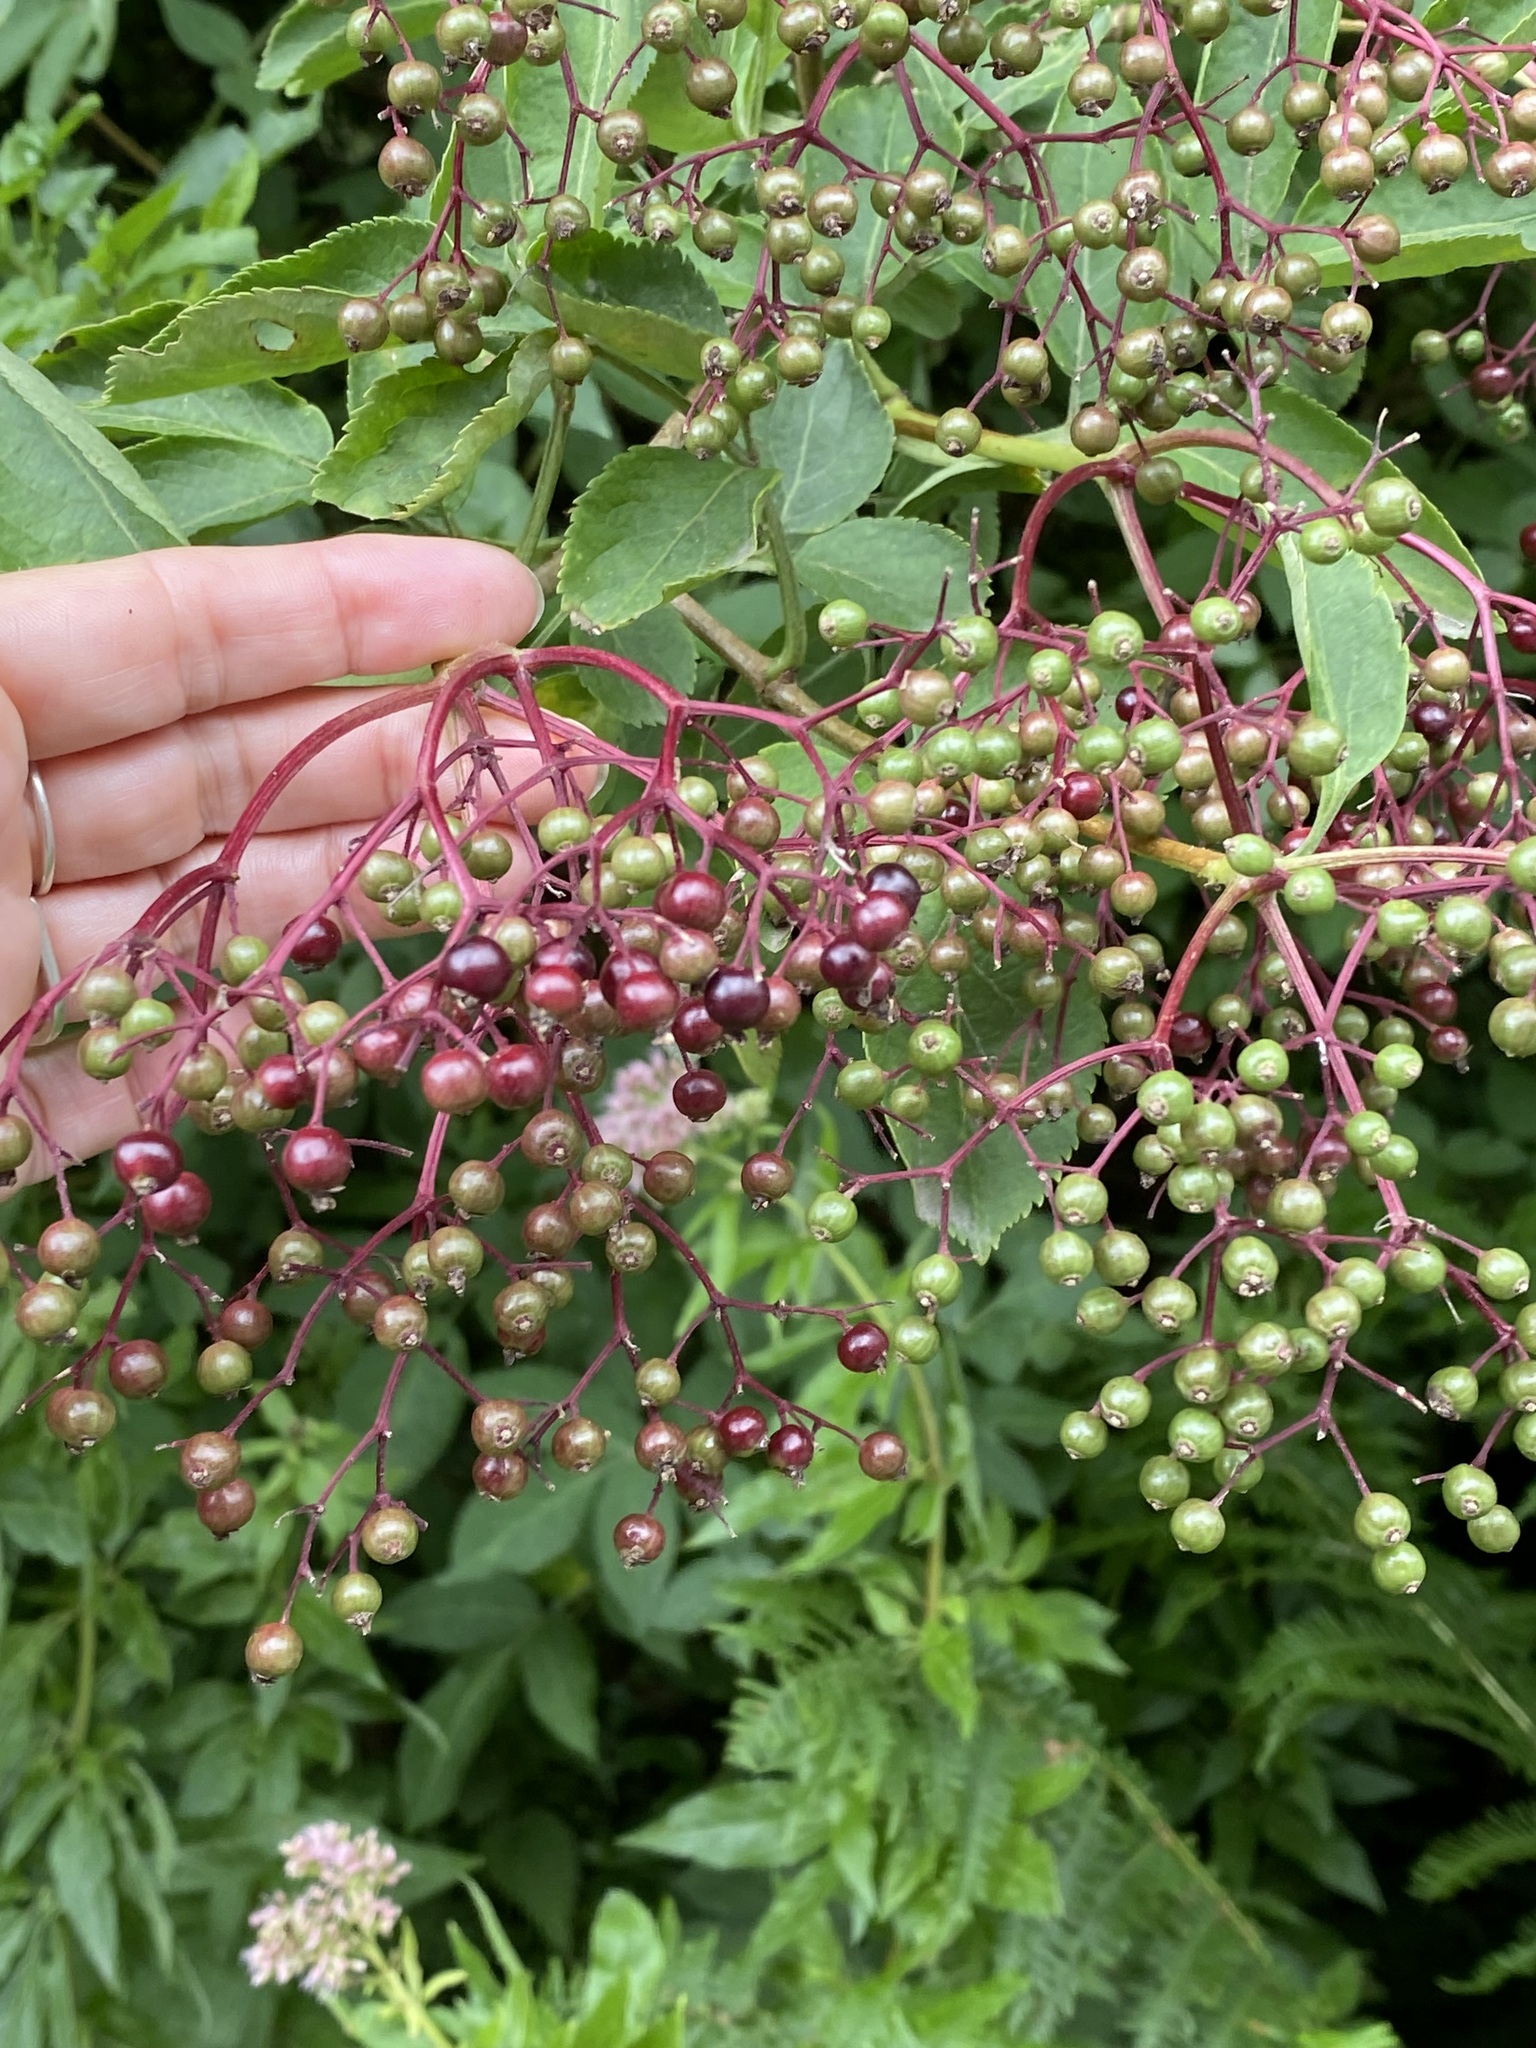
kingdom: Plantae
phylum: Tracheophyta
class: Magnoliopsida
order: Dipsacales
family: Viburnaceae
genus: Sambucus
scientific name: Sambucus nigra
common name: Elder
